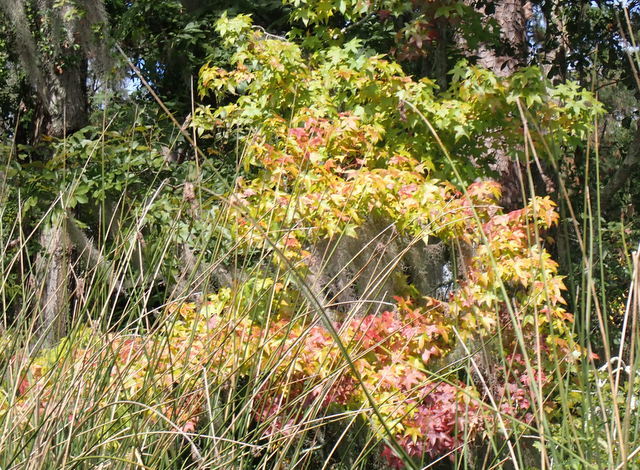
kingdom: Plantae
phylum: Tracheophyta
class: Magnoliopsida
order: Saxifragales
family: Altingiaceae
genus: Liquidambar
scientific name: Liquidambar styraciflua
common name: Sweet gum
